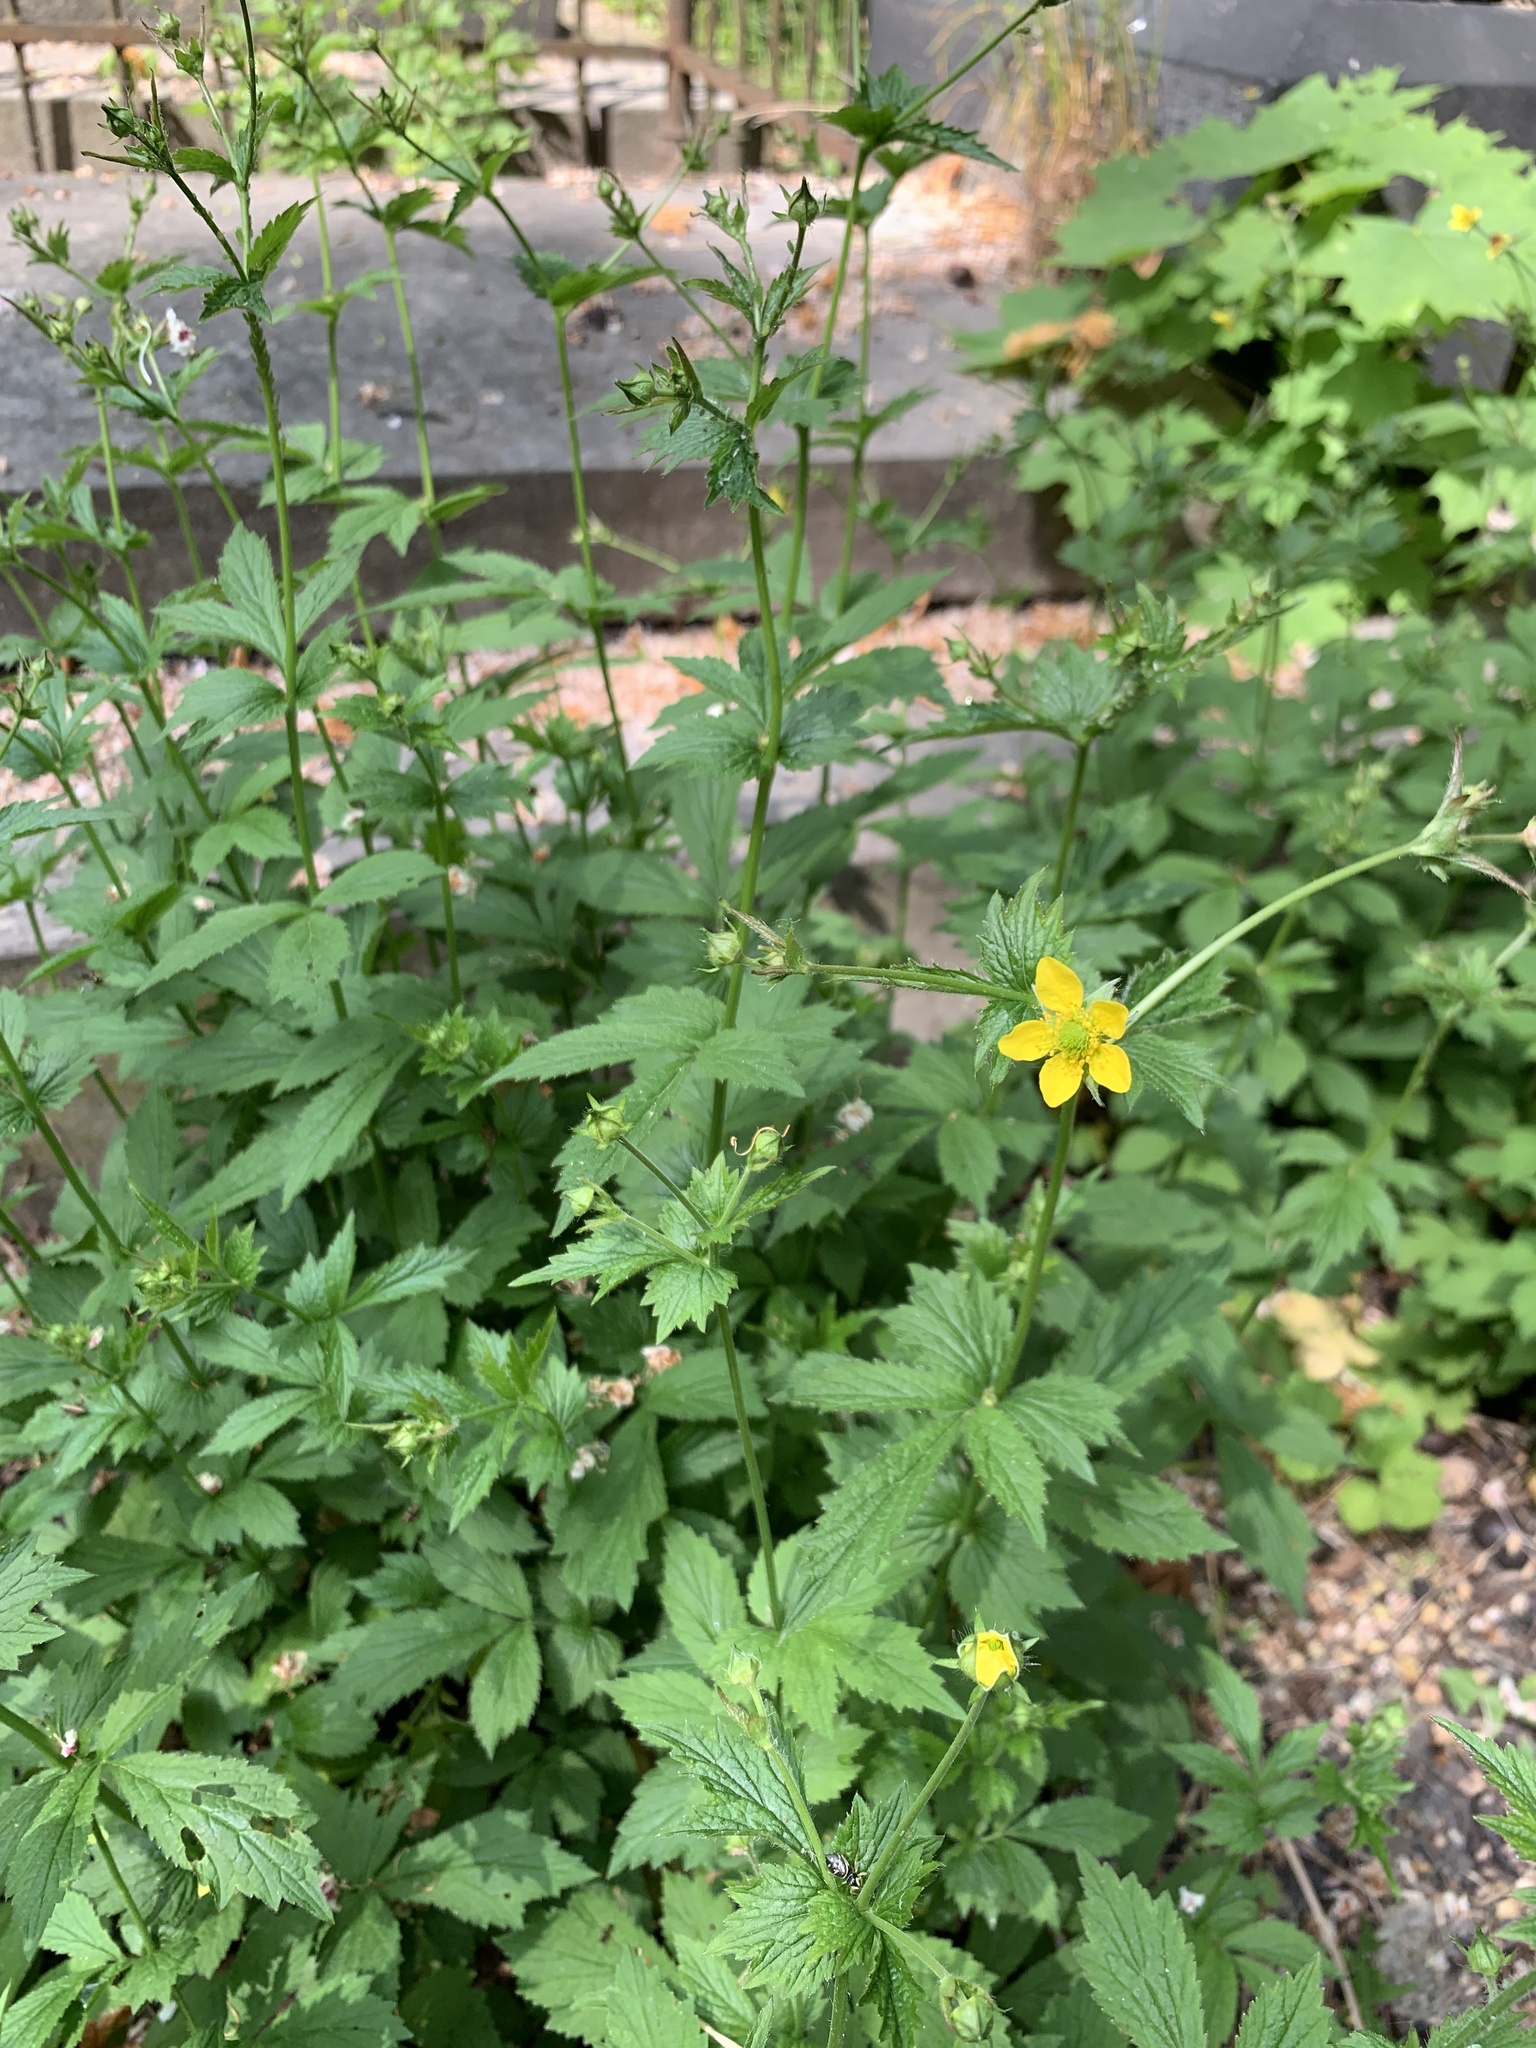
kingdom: Plantae
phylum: Tracheophyta
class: Magnoliopsida
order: Rosales
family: Rosaceae
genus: Geum
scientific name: Geum urbanum
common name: Wood avens
